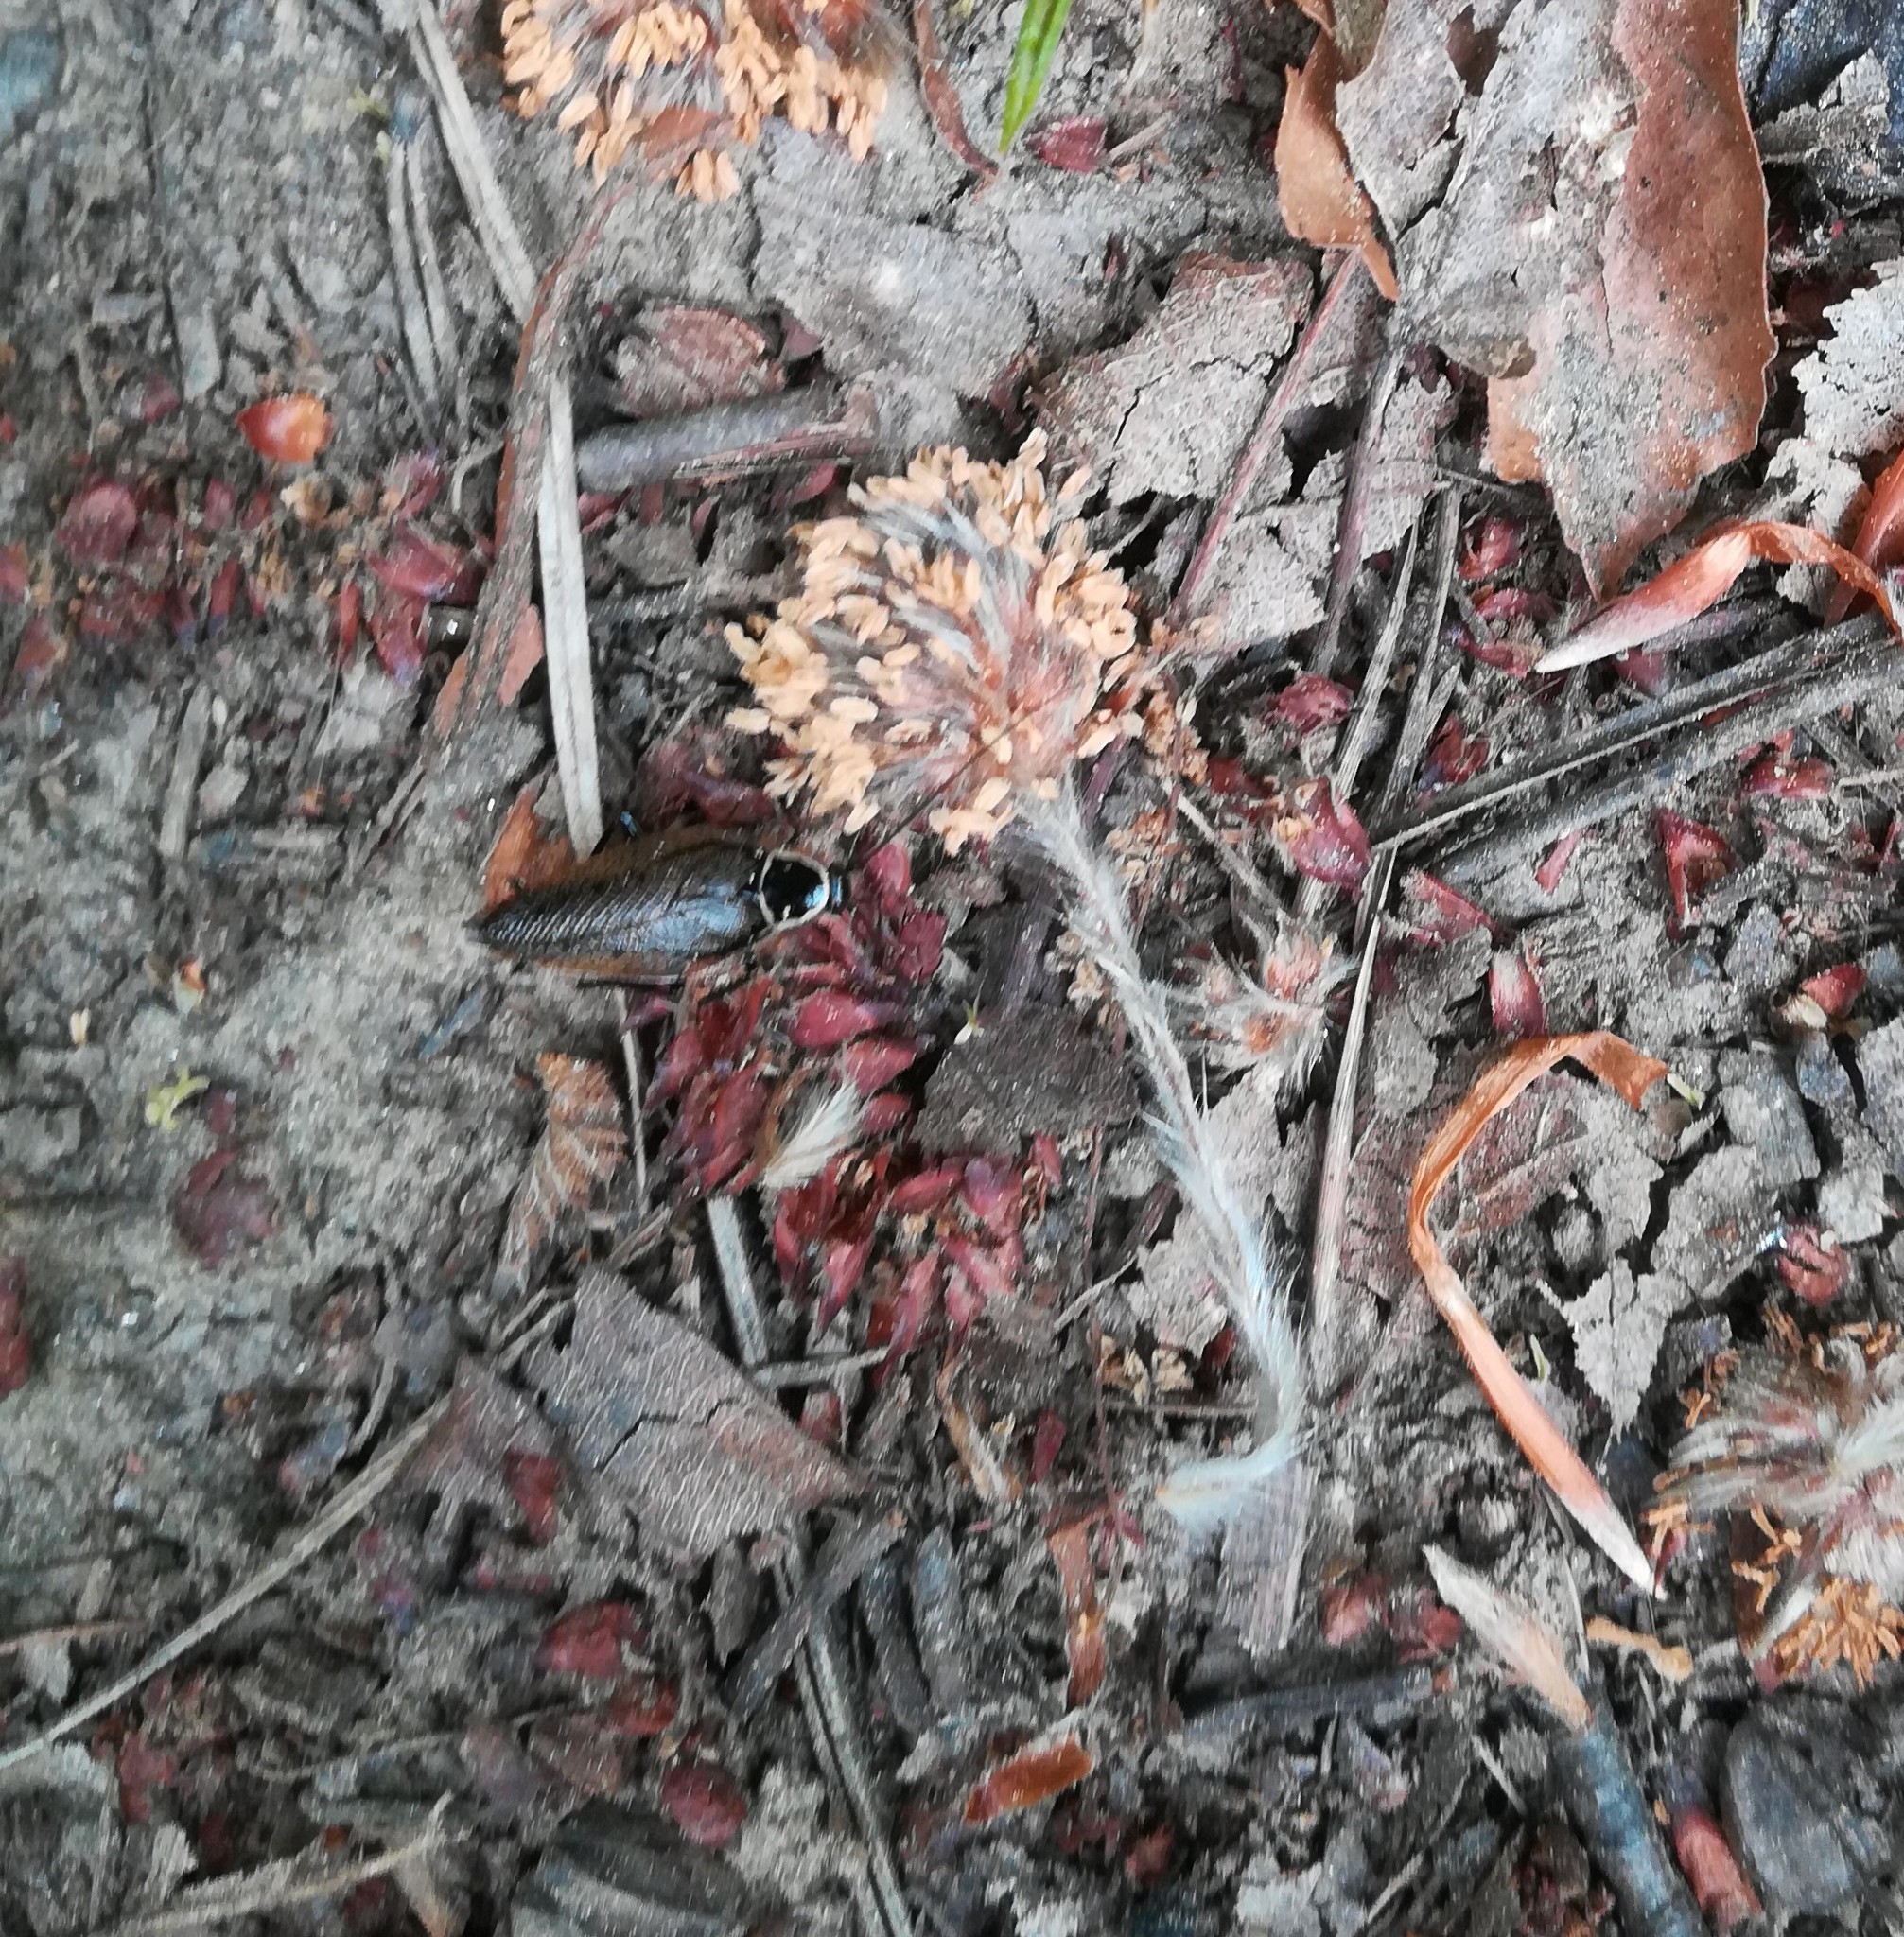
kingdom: Animalia
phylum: Arthropoda
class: Insecta
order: Blattodea
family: Ectobiidae
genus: Ectobius
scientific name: Ectobius sylvestris
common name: Forest cockroach
